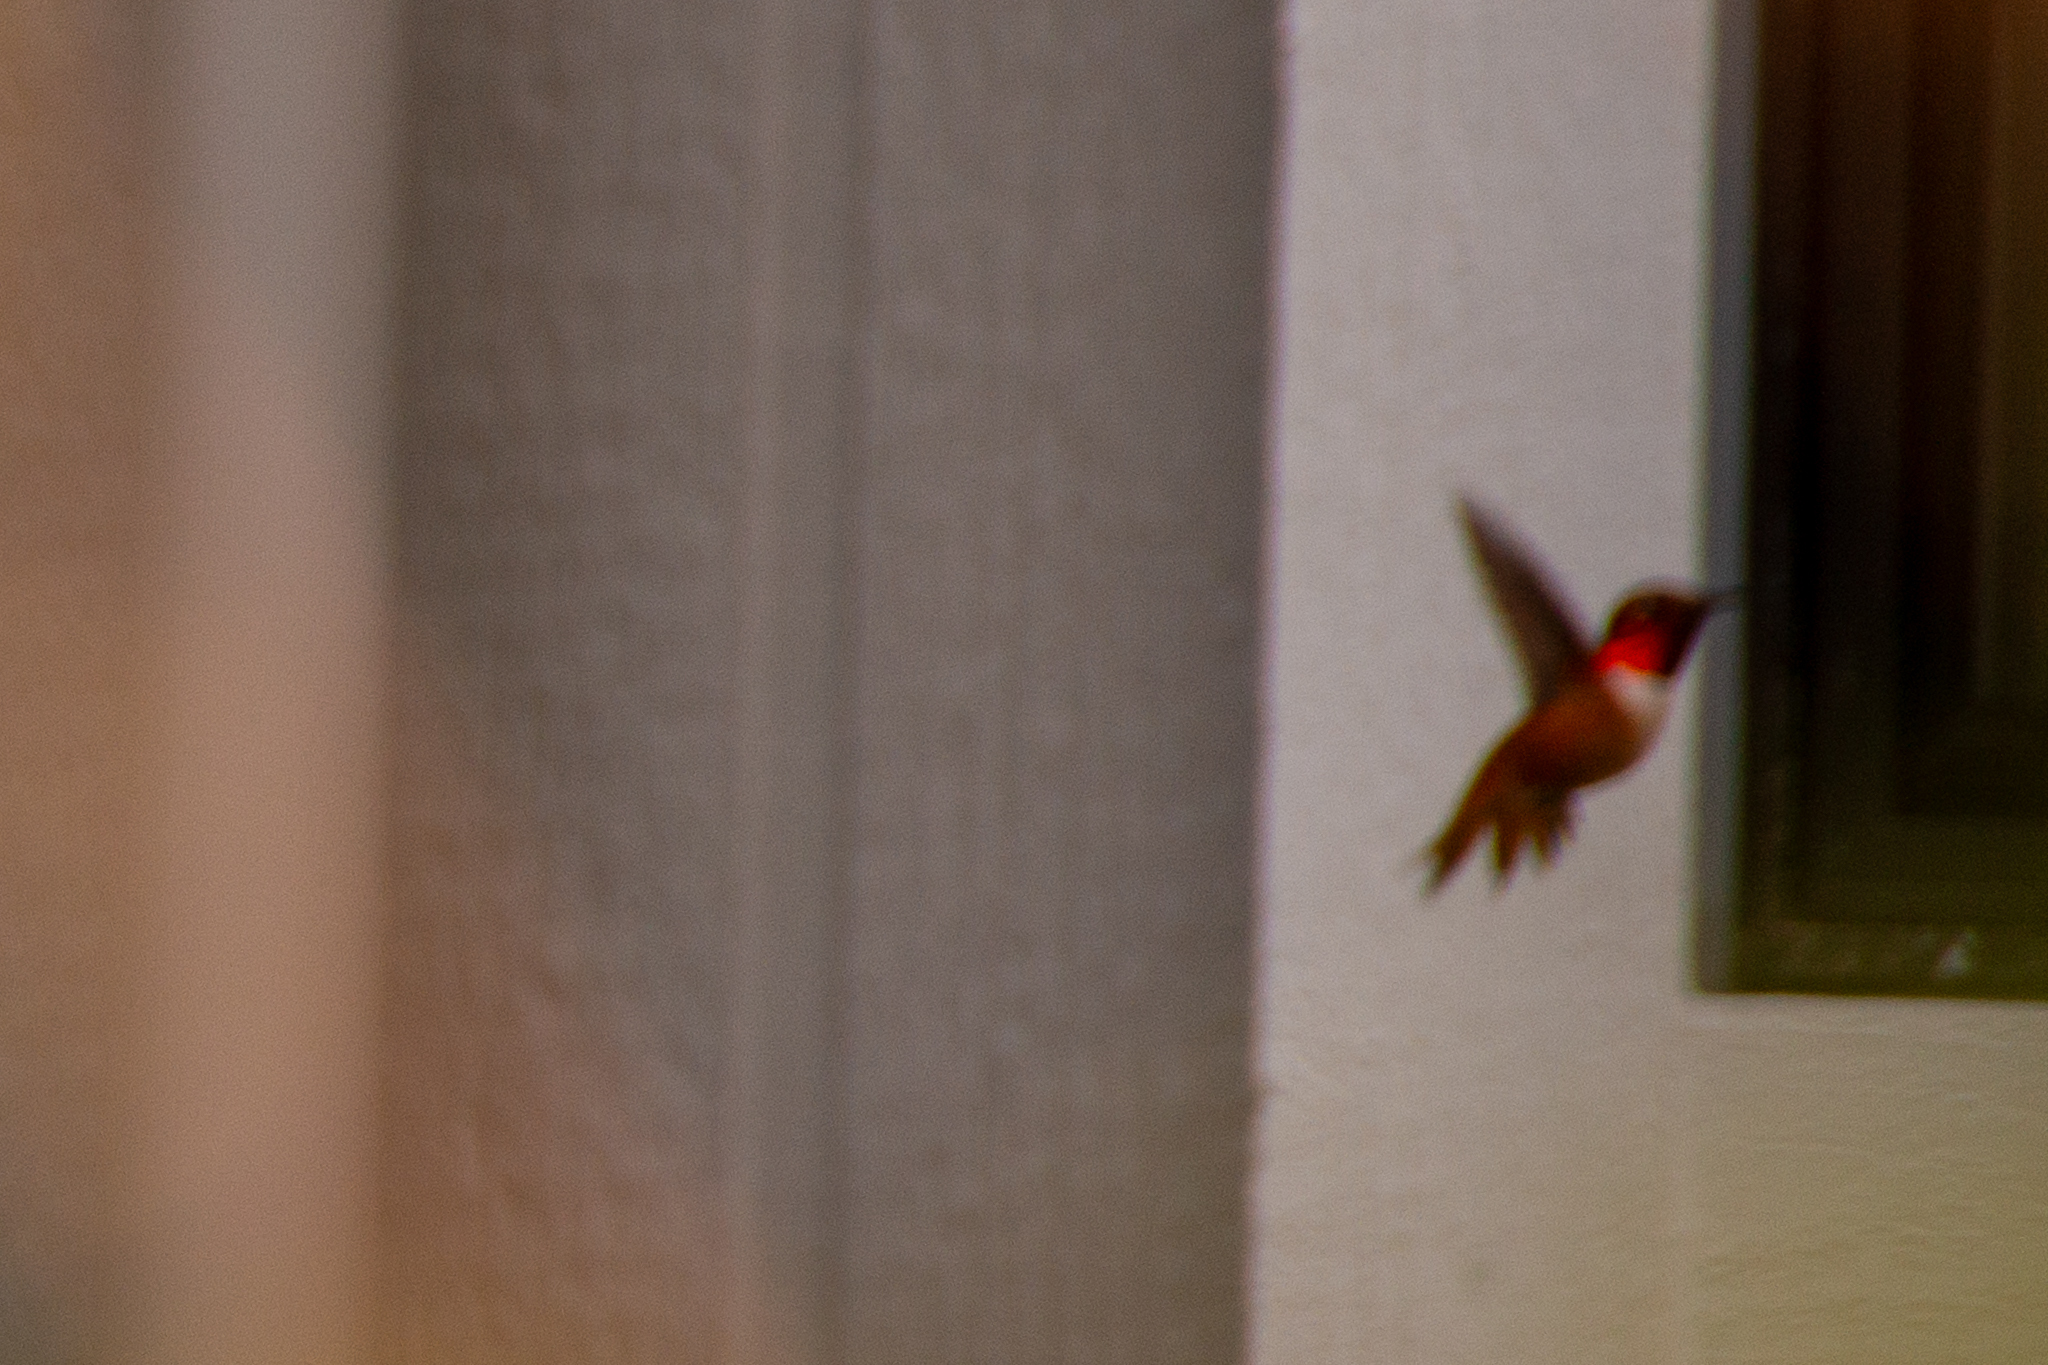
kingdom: Animalia
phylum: Chordata
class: Aves
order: Apodiformes
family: Trochilidae
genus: Selasphorus
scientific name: Selasphorus rufus
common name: Rufous hummingbird
